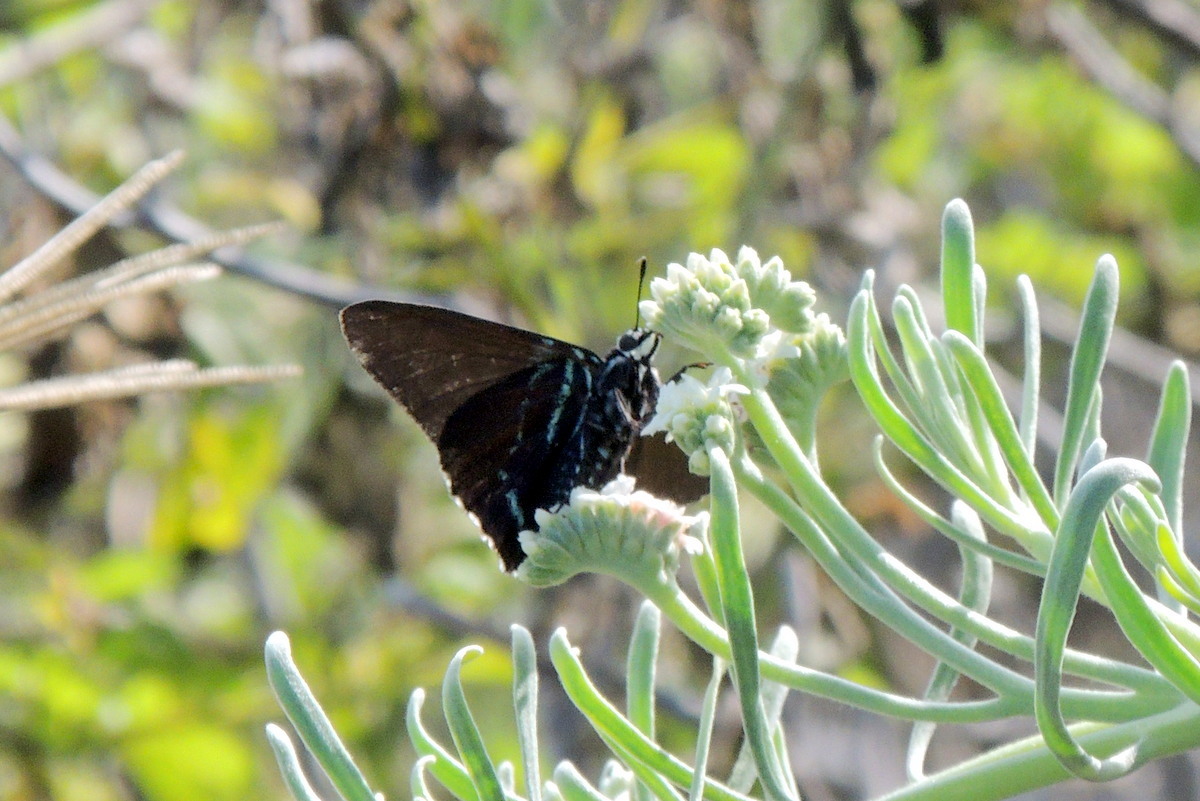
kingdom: Plantae
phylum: Tracheophyta
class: Magnoliopsida
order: Boraginales
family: Heliotropiaceae
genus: Tournefortia
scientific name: Tournefortia gnaphalodes
